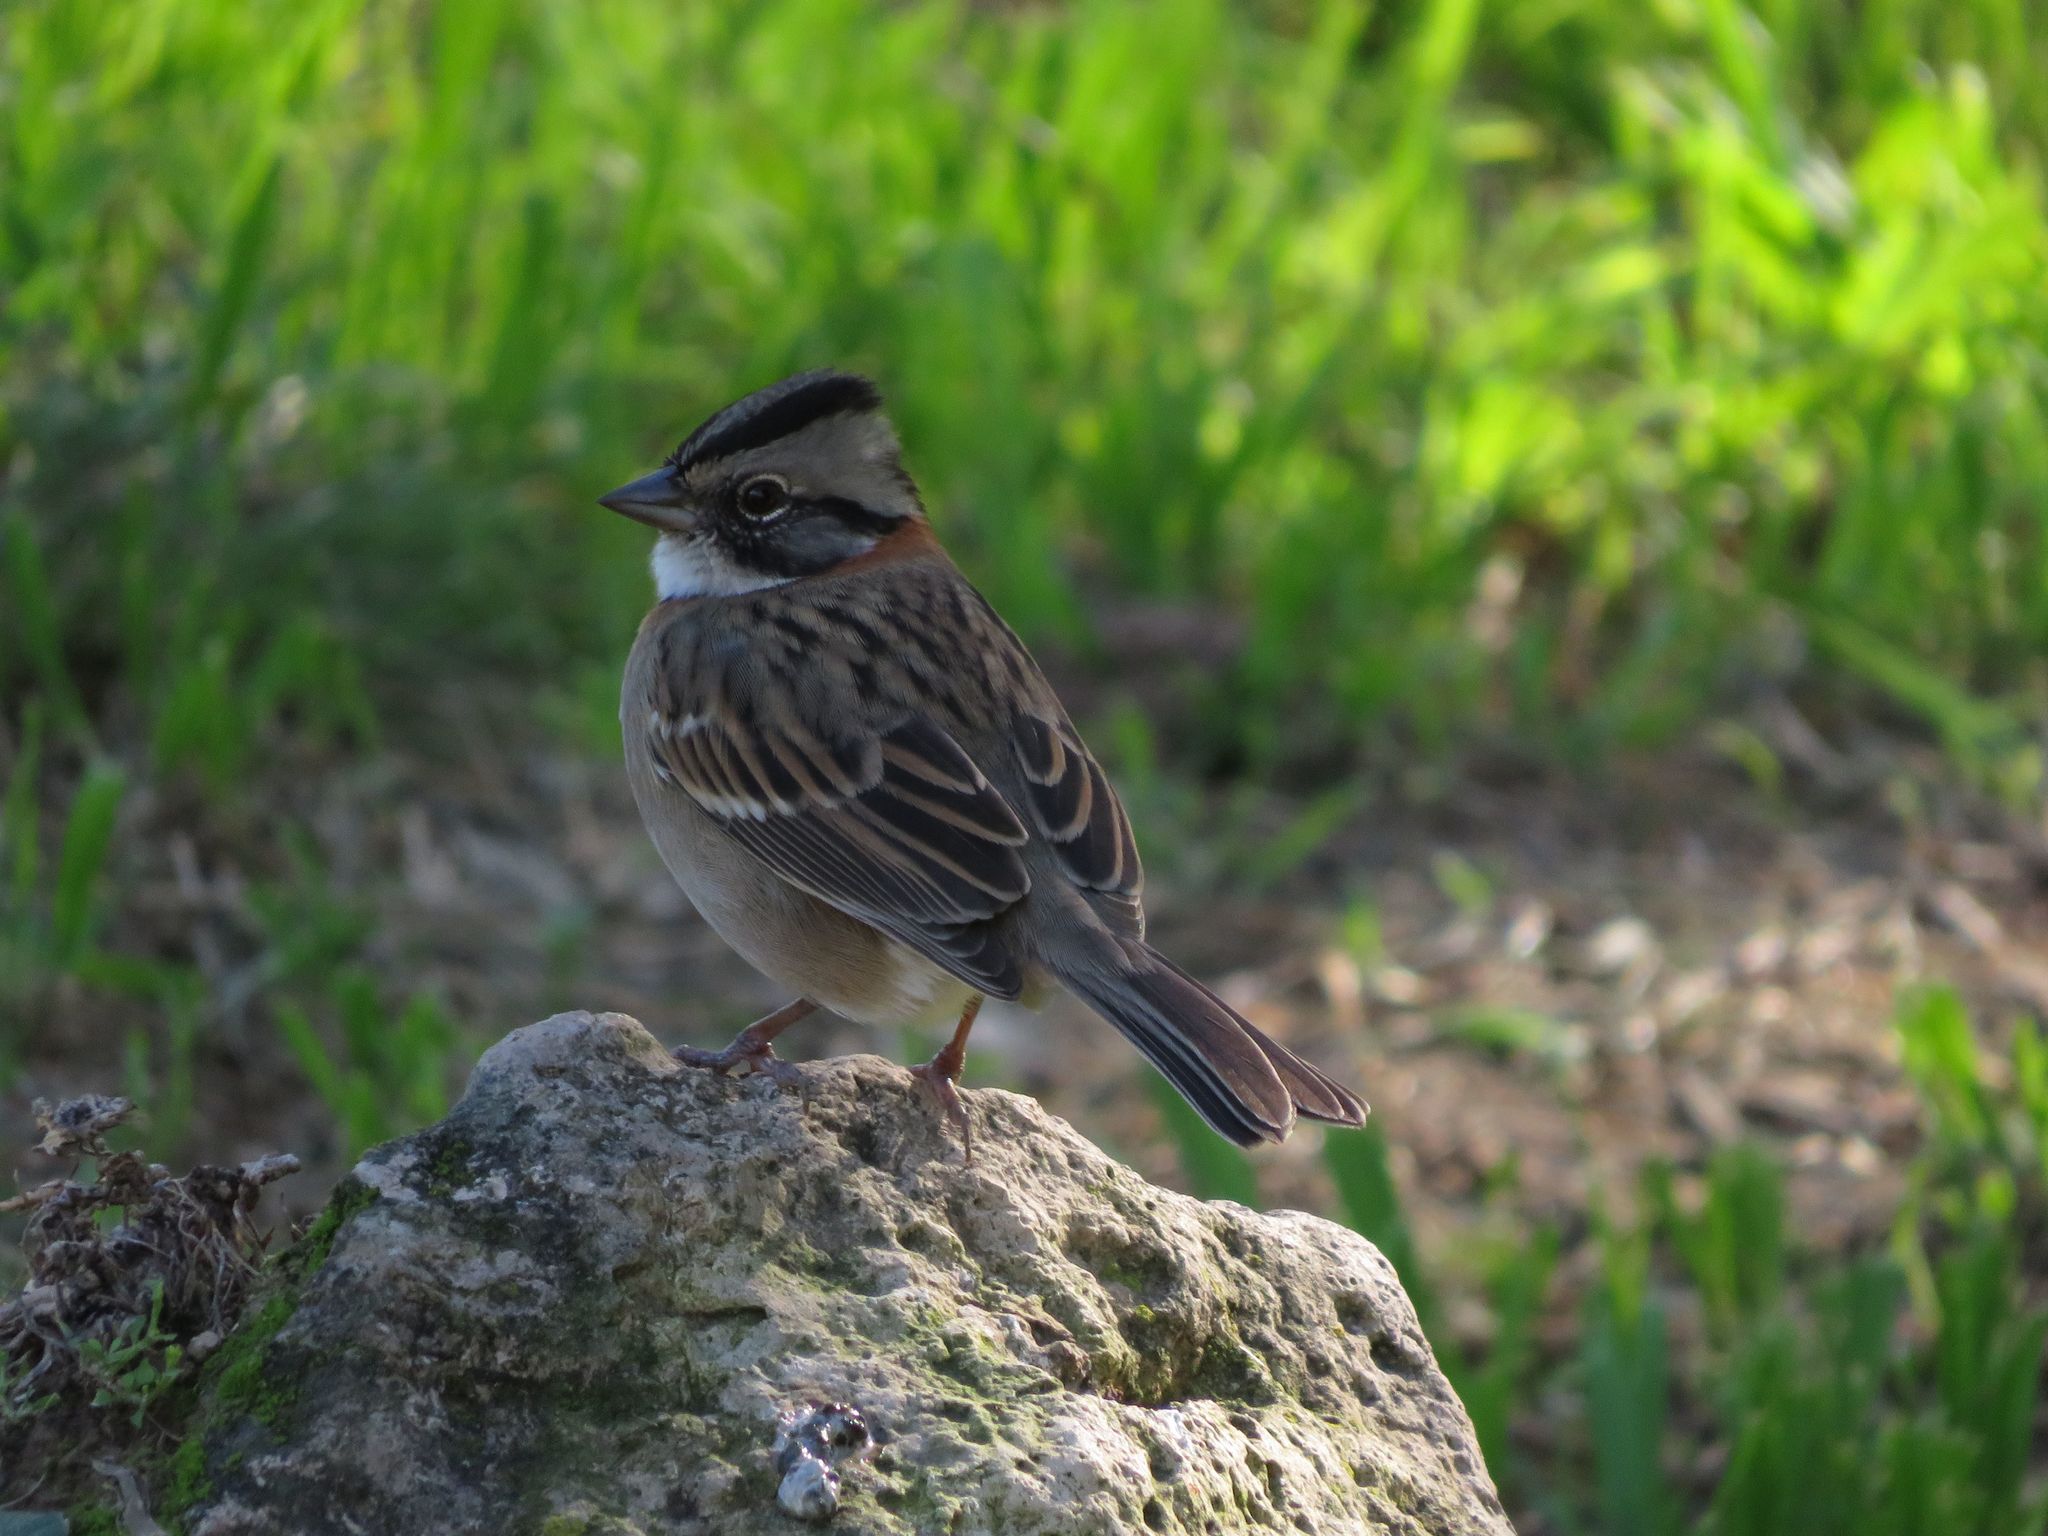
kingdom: Animalia
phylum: Chordata
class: Aves
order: Passeriformes
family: Passerellidae
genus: Zonotrichia
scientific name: Zonotrichia capensis
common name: Rufous-collared sparrow
